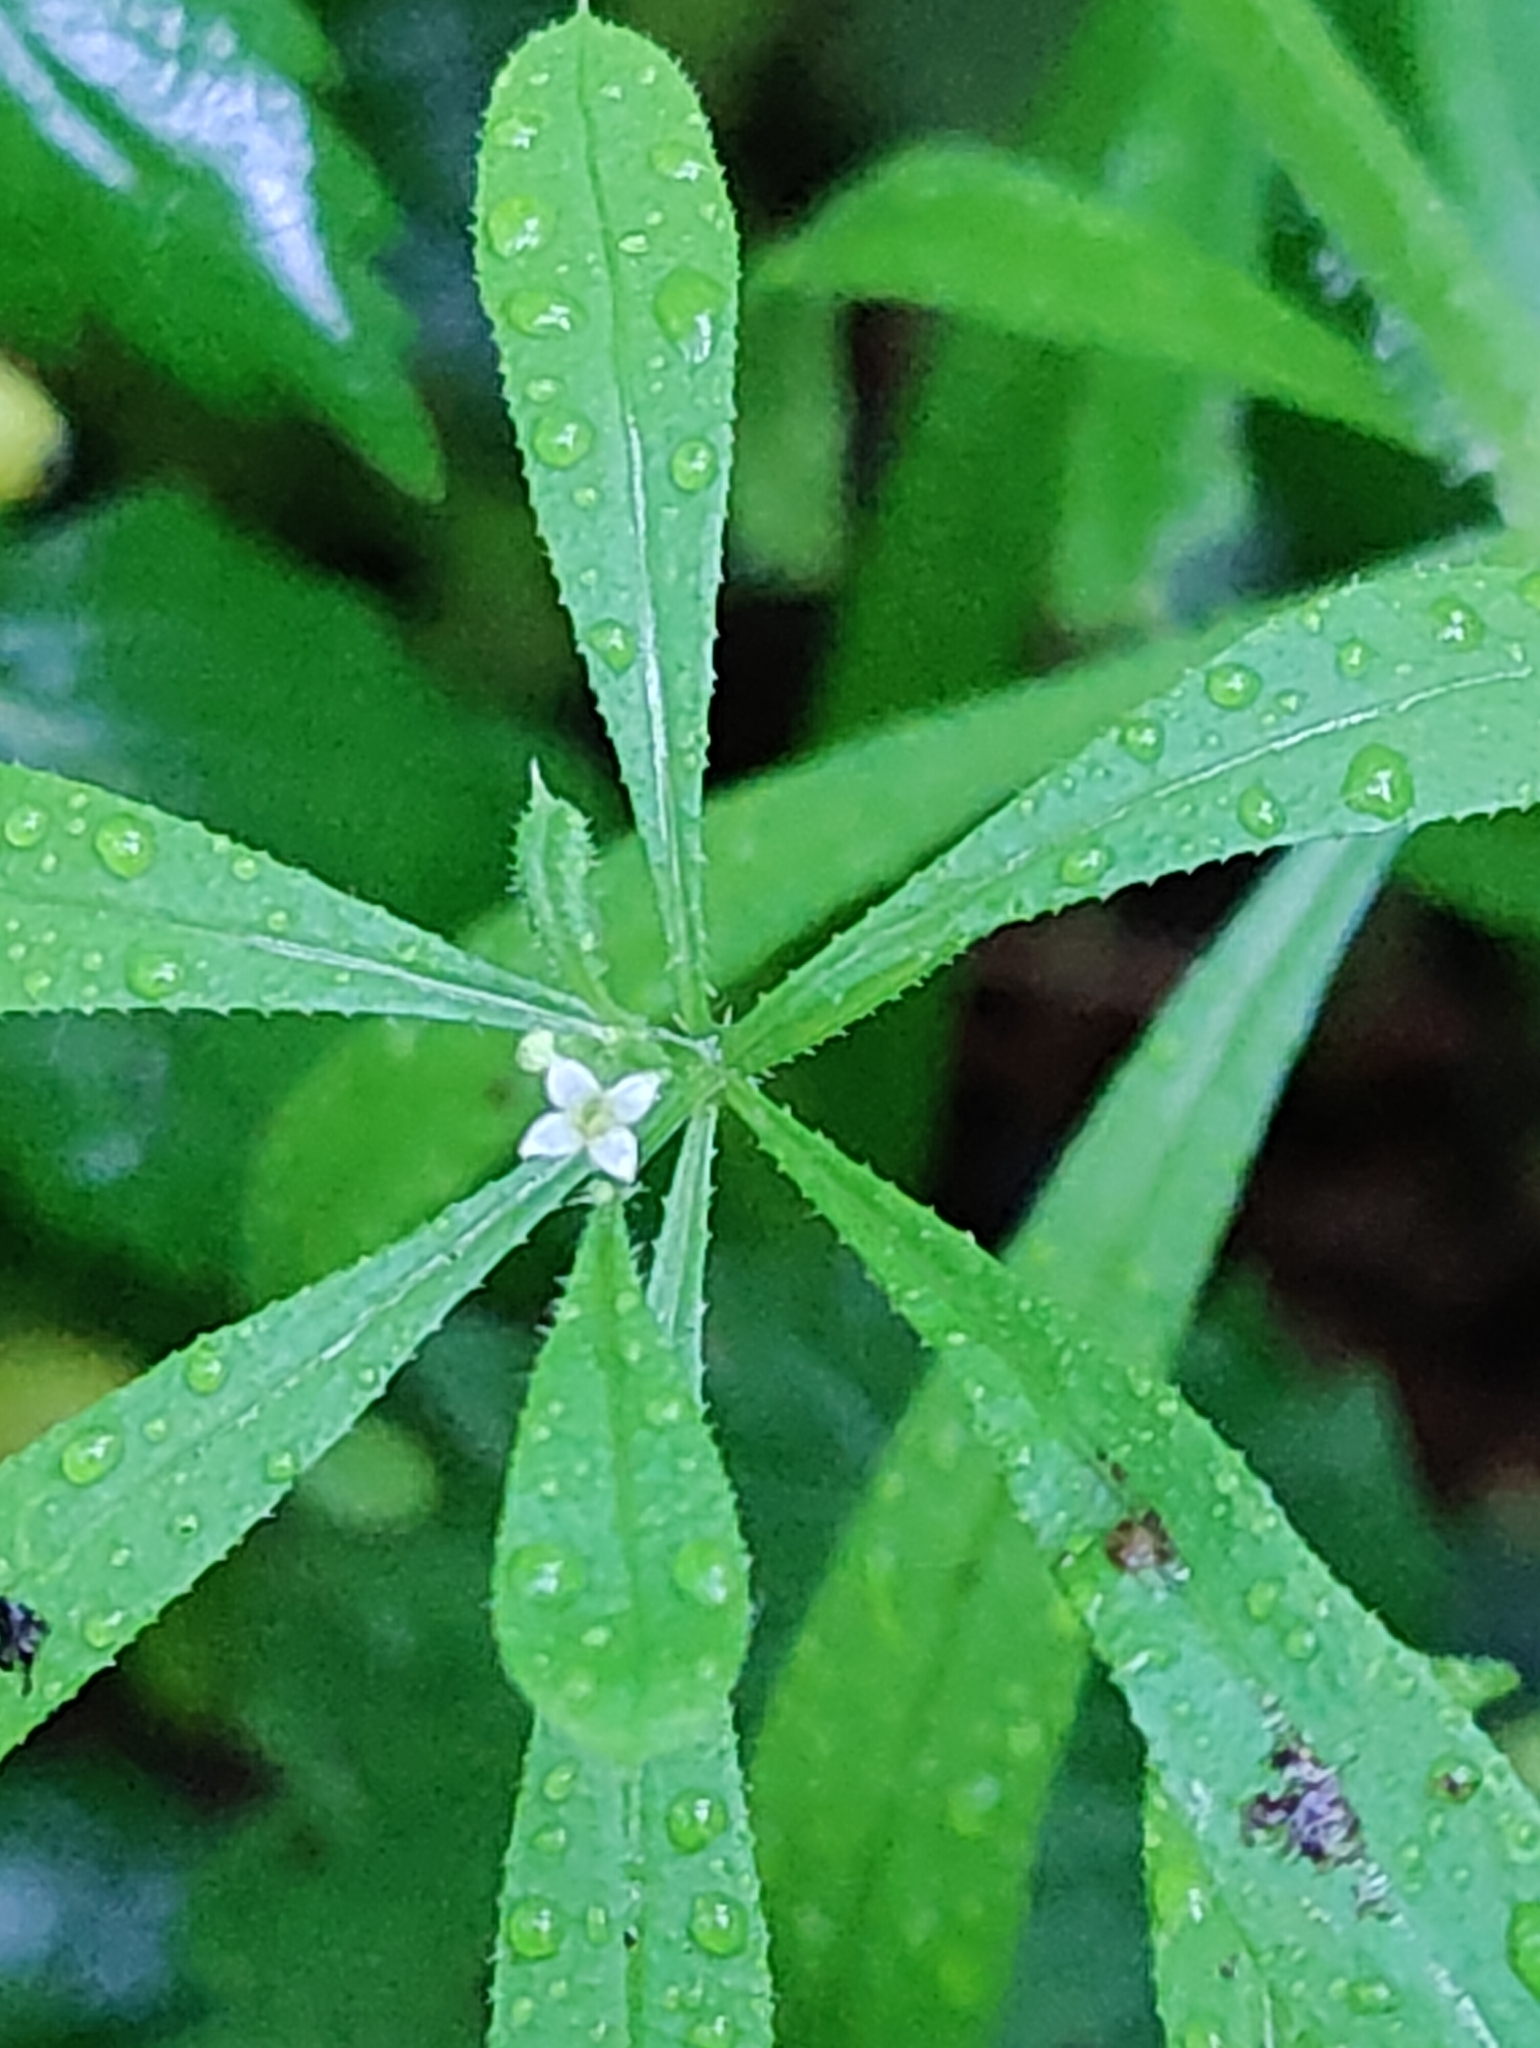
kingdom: Plantae
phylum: Tracheophyta
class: Magnoliopsida
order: Gentianales
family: Rubiaceae
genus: Galium
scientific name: Galium aparine
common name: Cleavers
